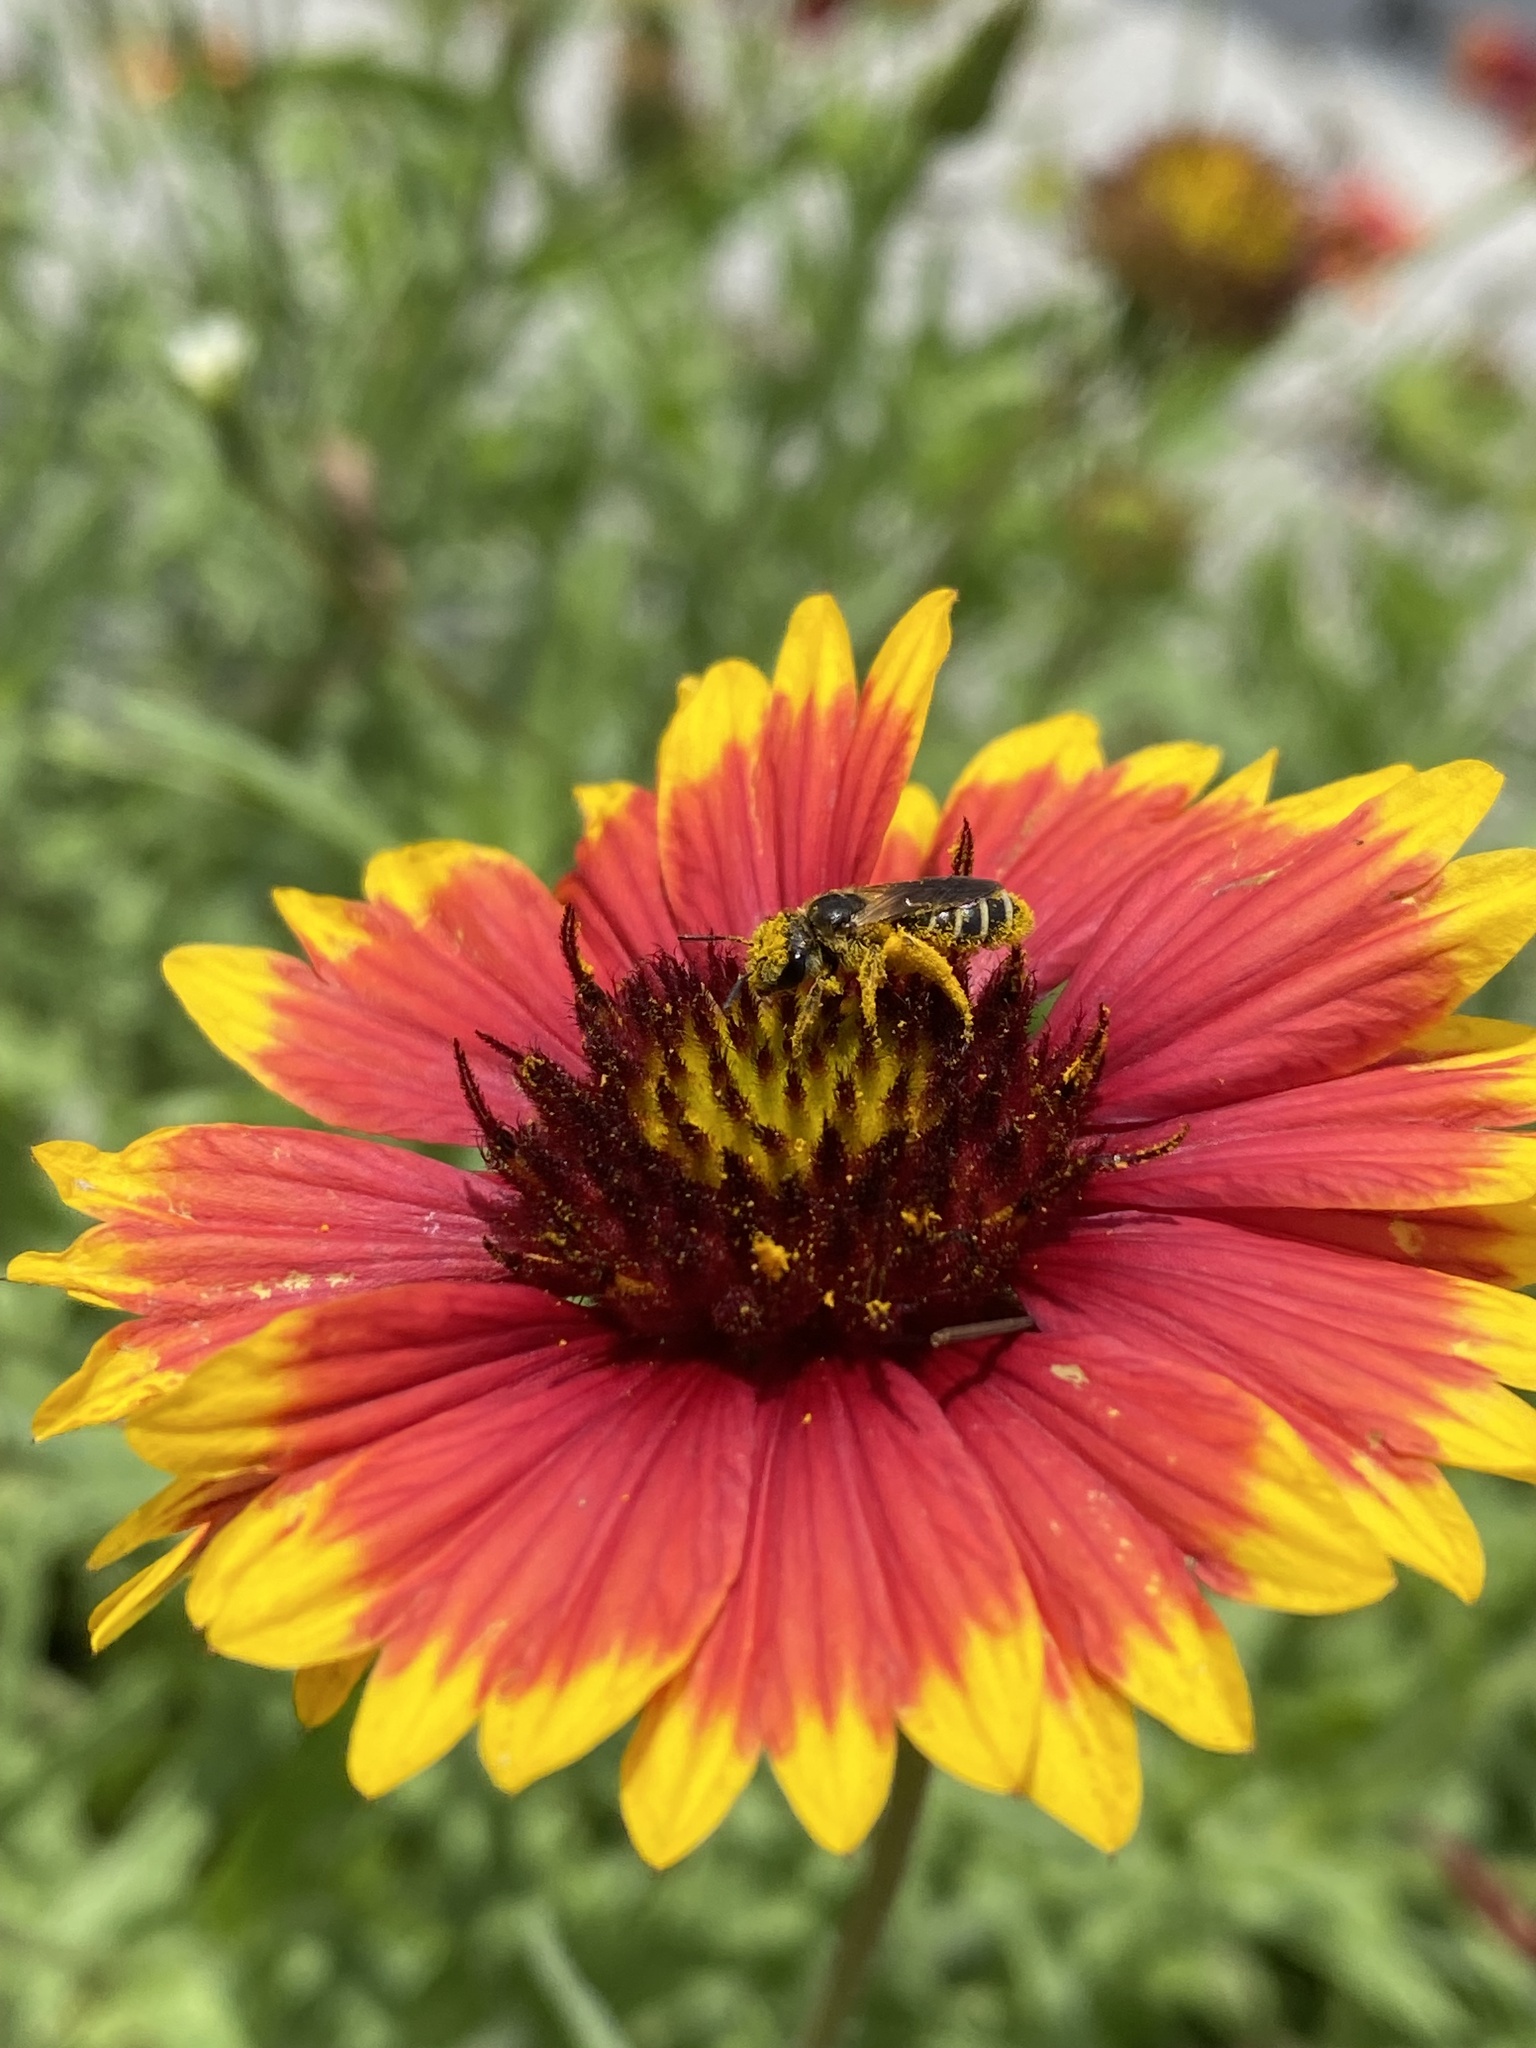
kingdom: Animalia
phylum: Arthropoda
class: Insecta
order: Hymenoptera
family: Halictidae
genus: Halictus
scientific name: Halictus poeyi
